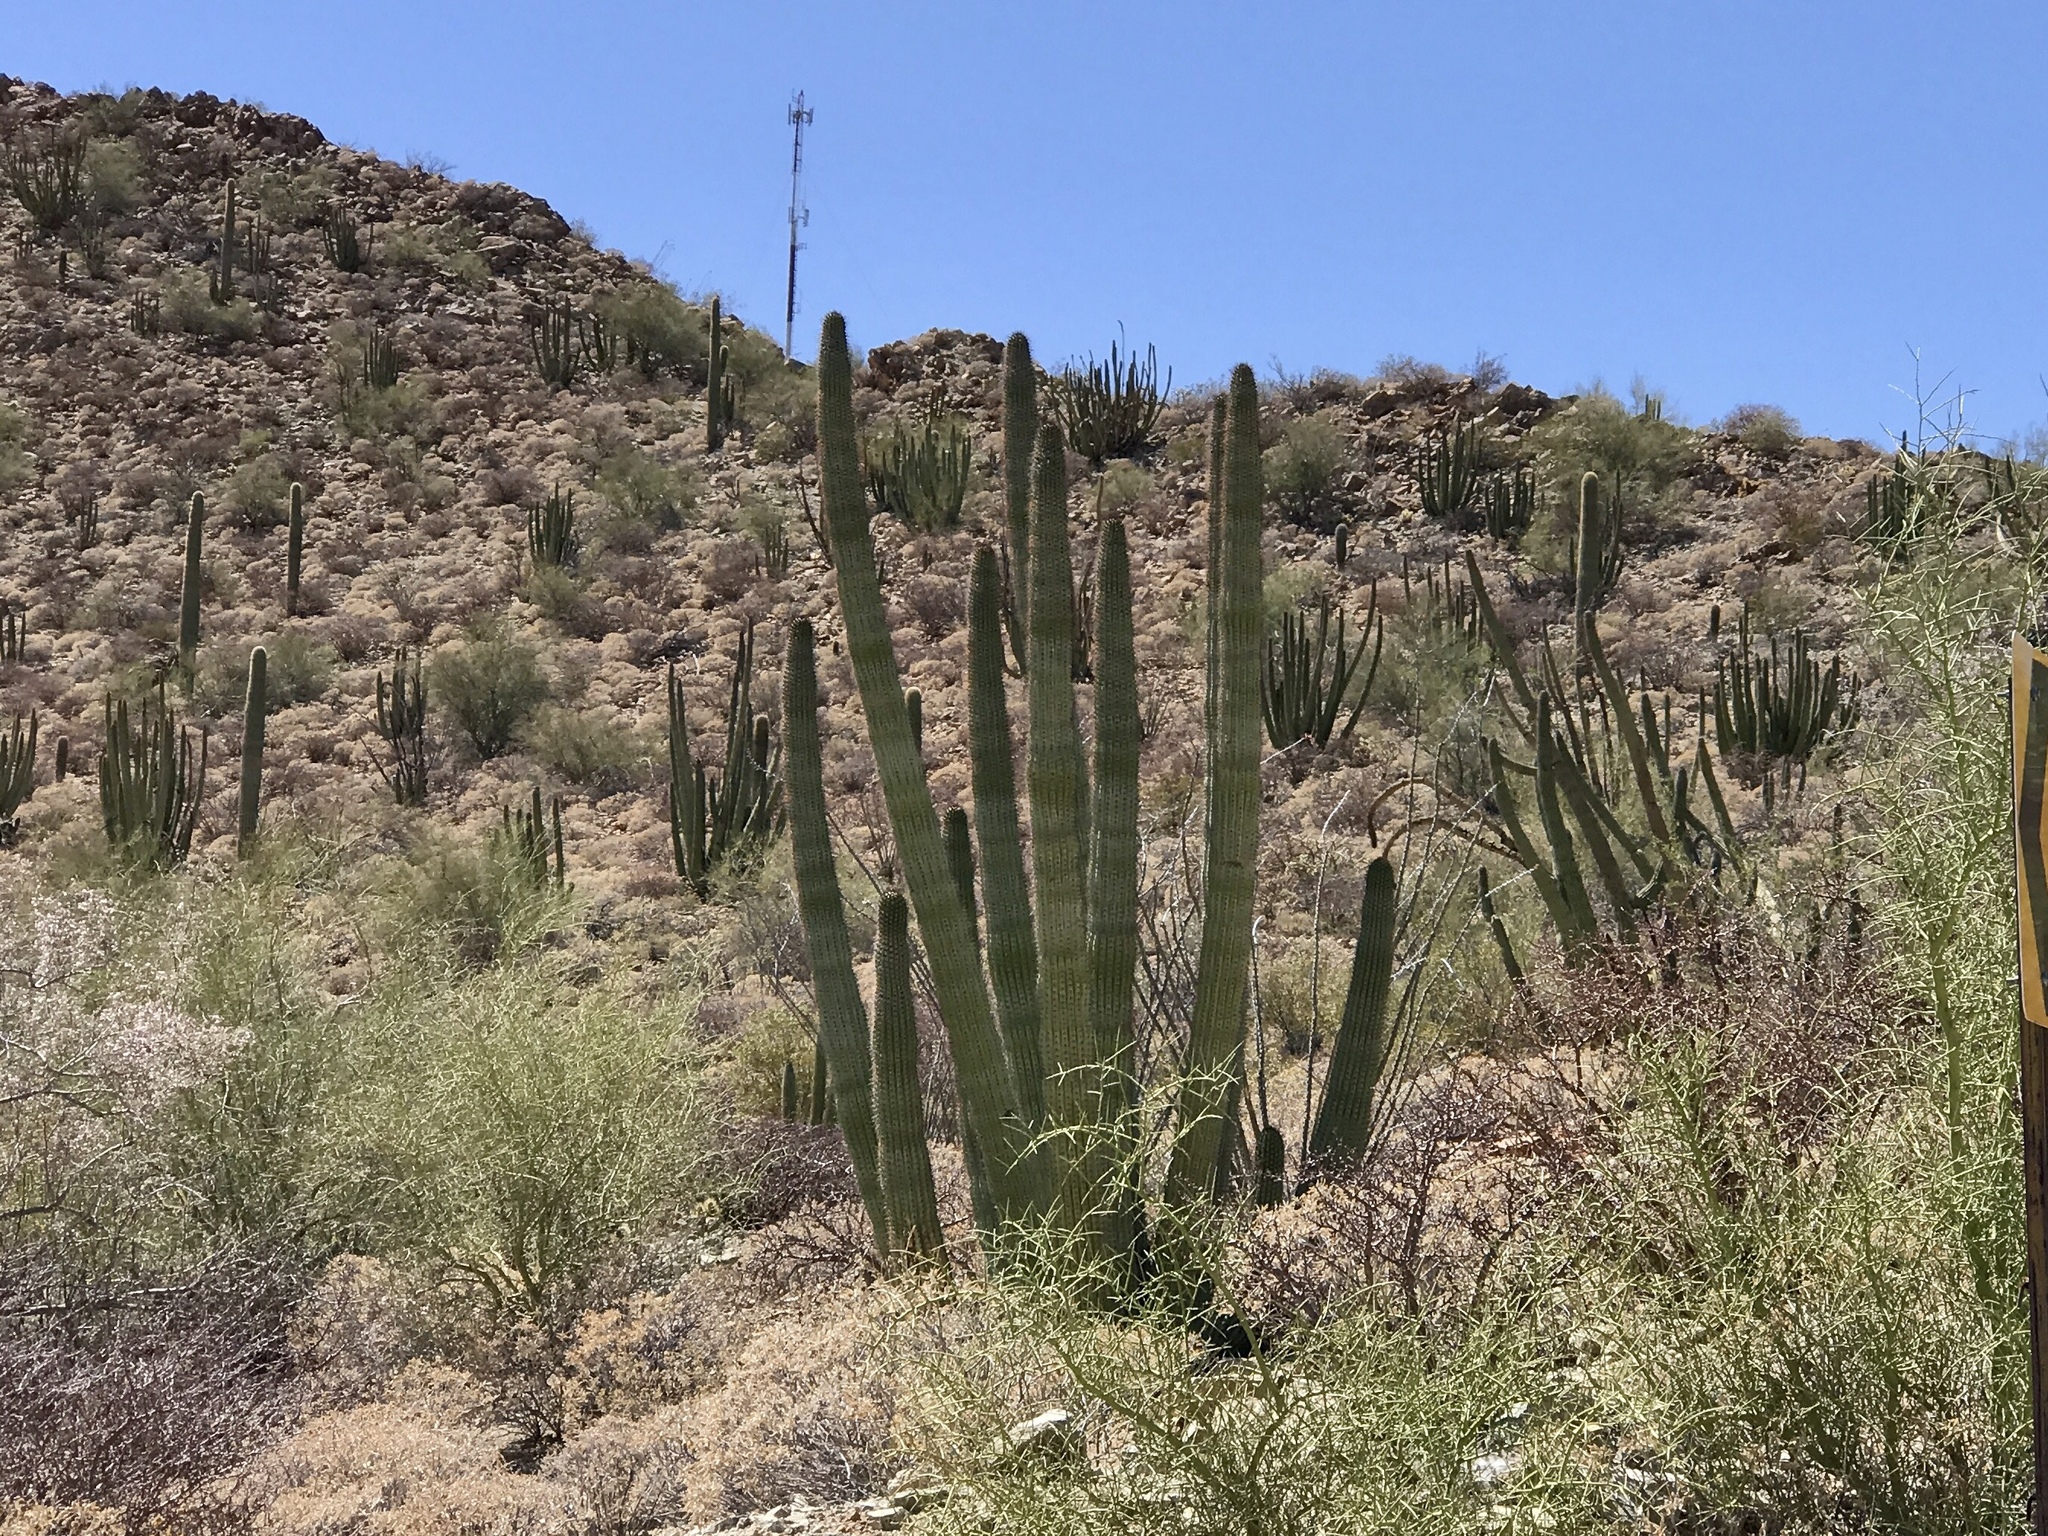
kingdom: Plantae
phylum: Tracheophyta
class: Magnoliopsida
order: Caryophyllales
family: Cactaceae
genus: Stenocereus
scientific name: Stenocereus thurberi
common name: Organ pipe cactus
